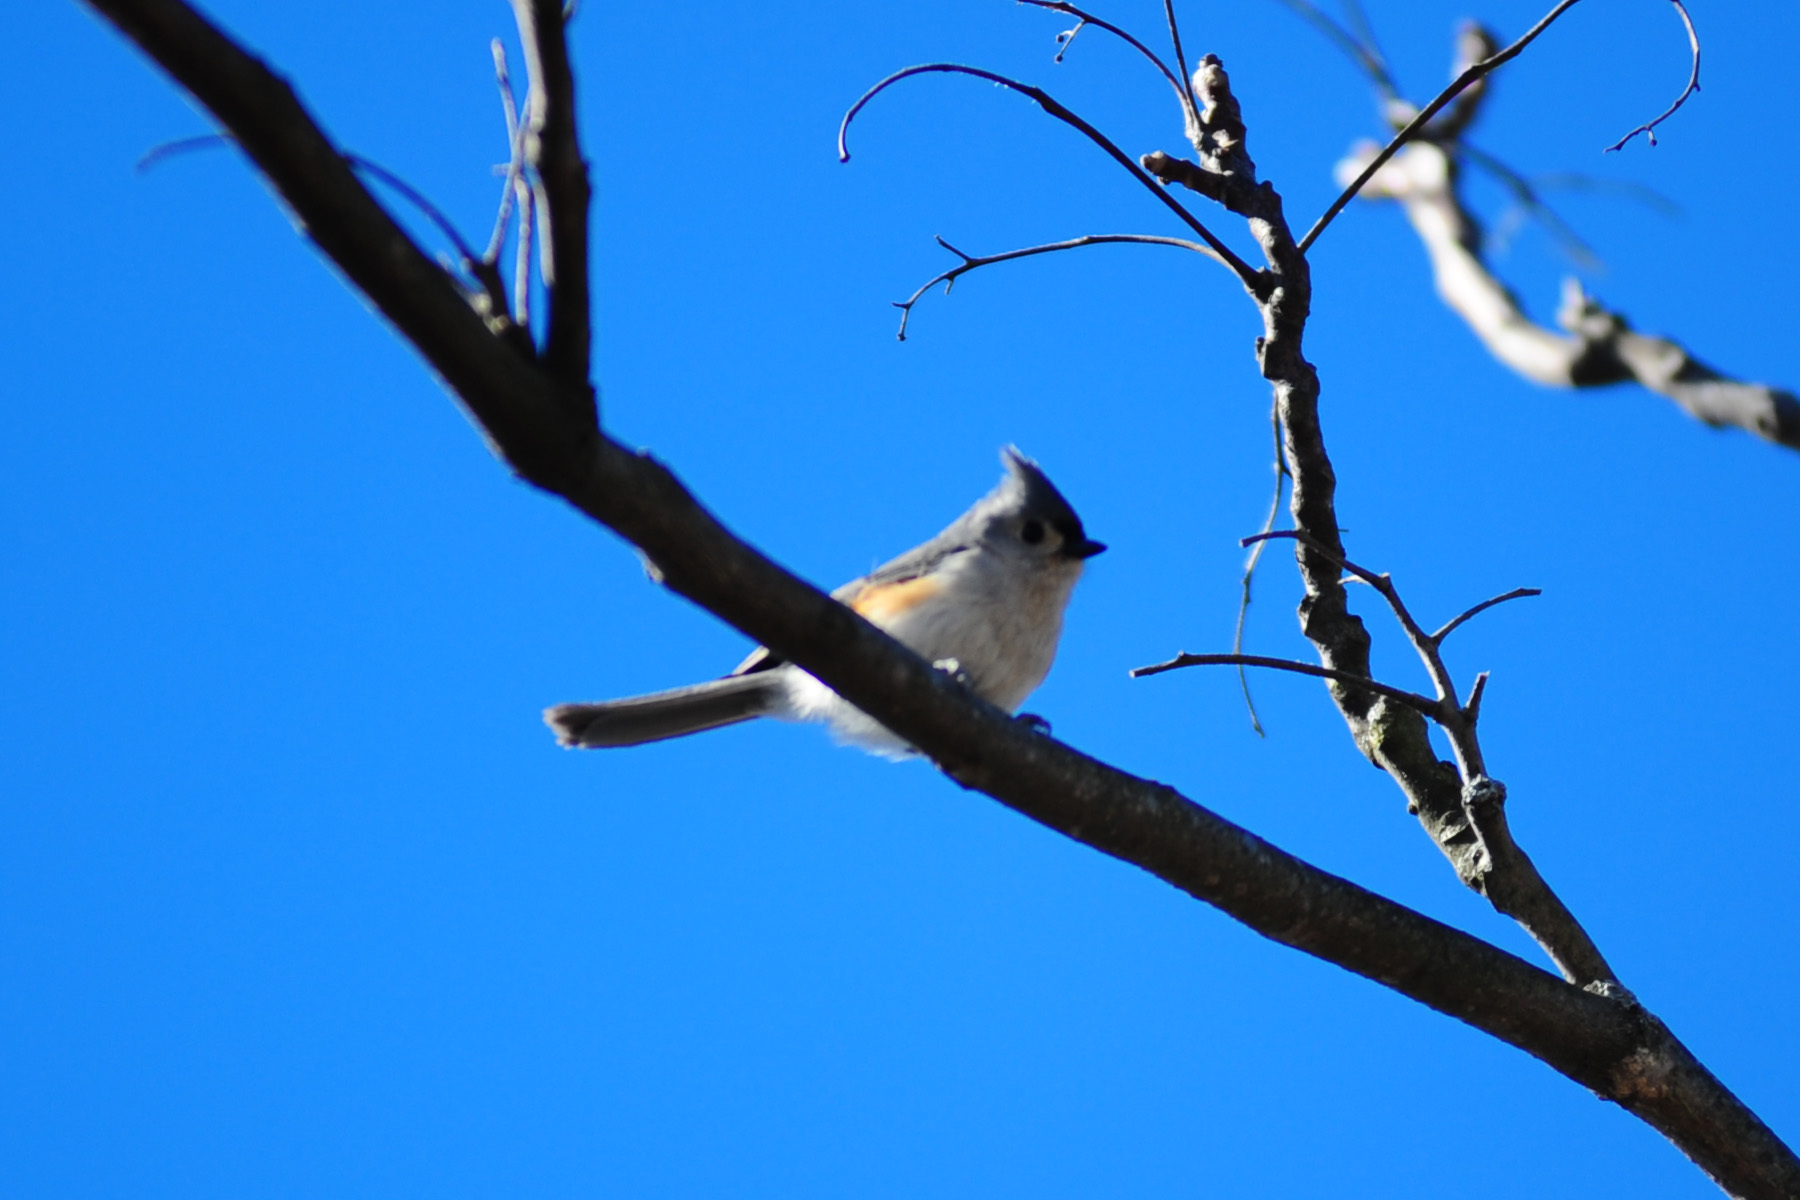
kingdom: Animalia
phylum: Chordata
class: Aves
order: Passeriformes
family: Paridae
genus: Baeolophus
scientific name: Baeolophus bicolor
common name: Tufted titmouse
